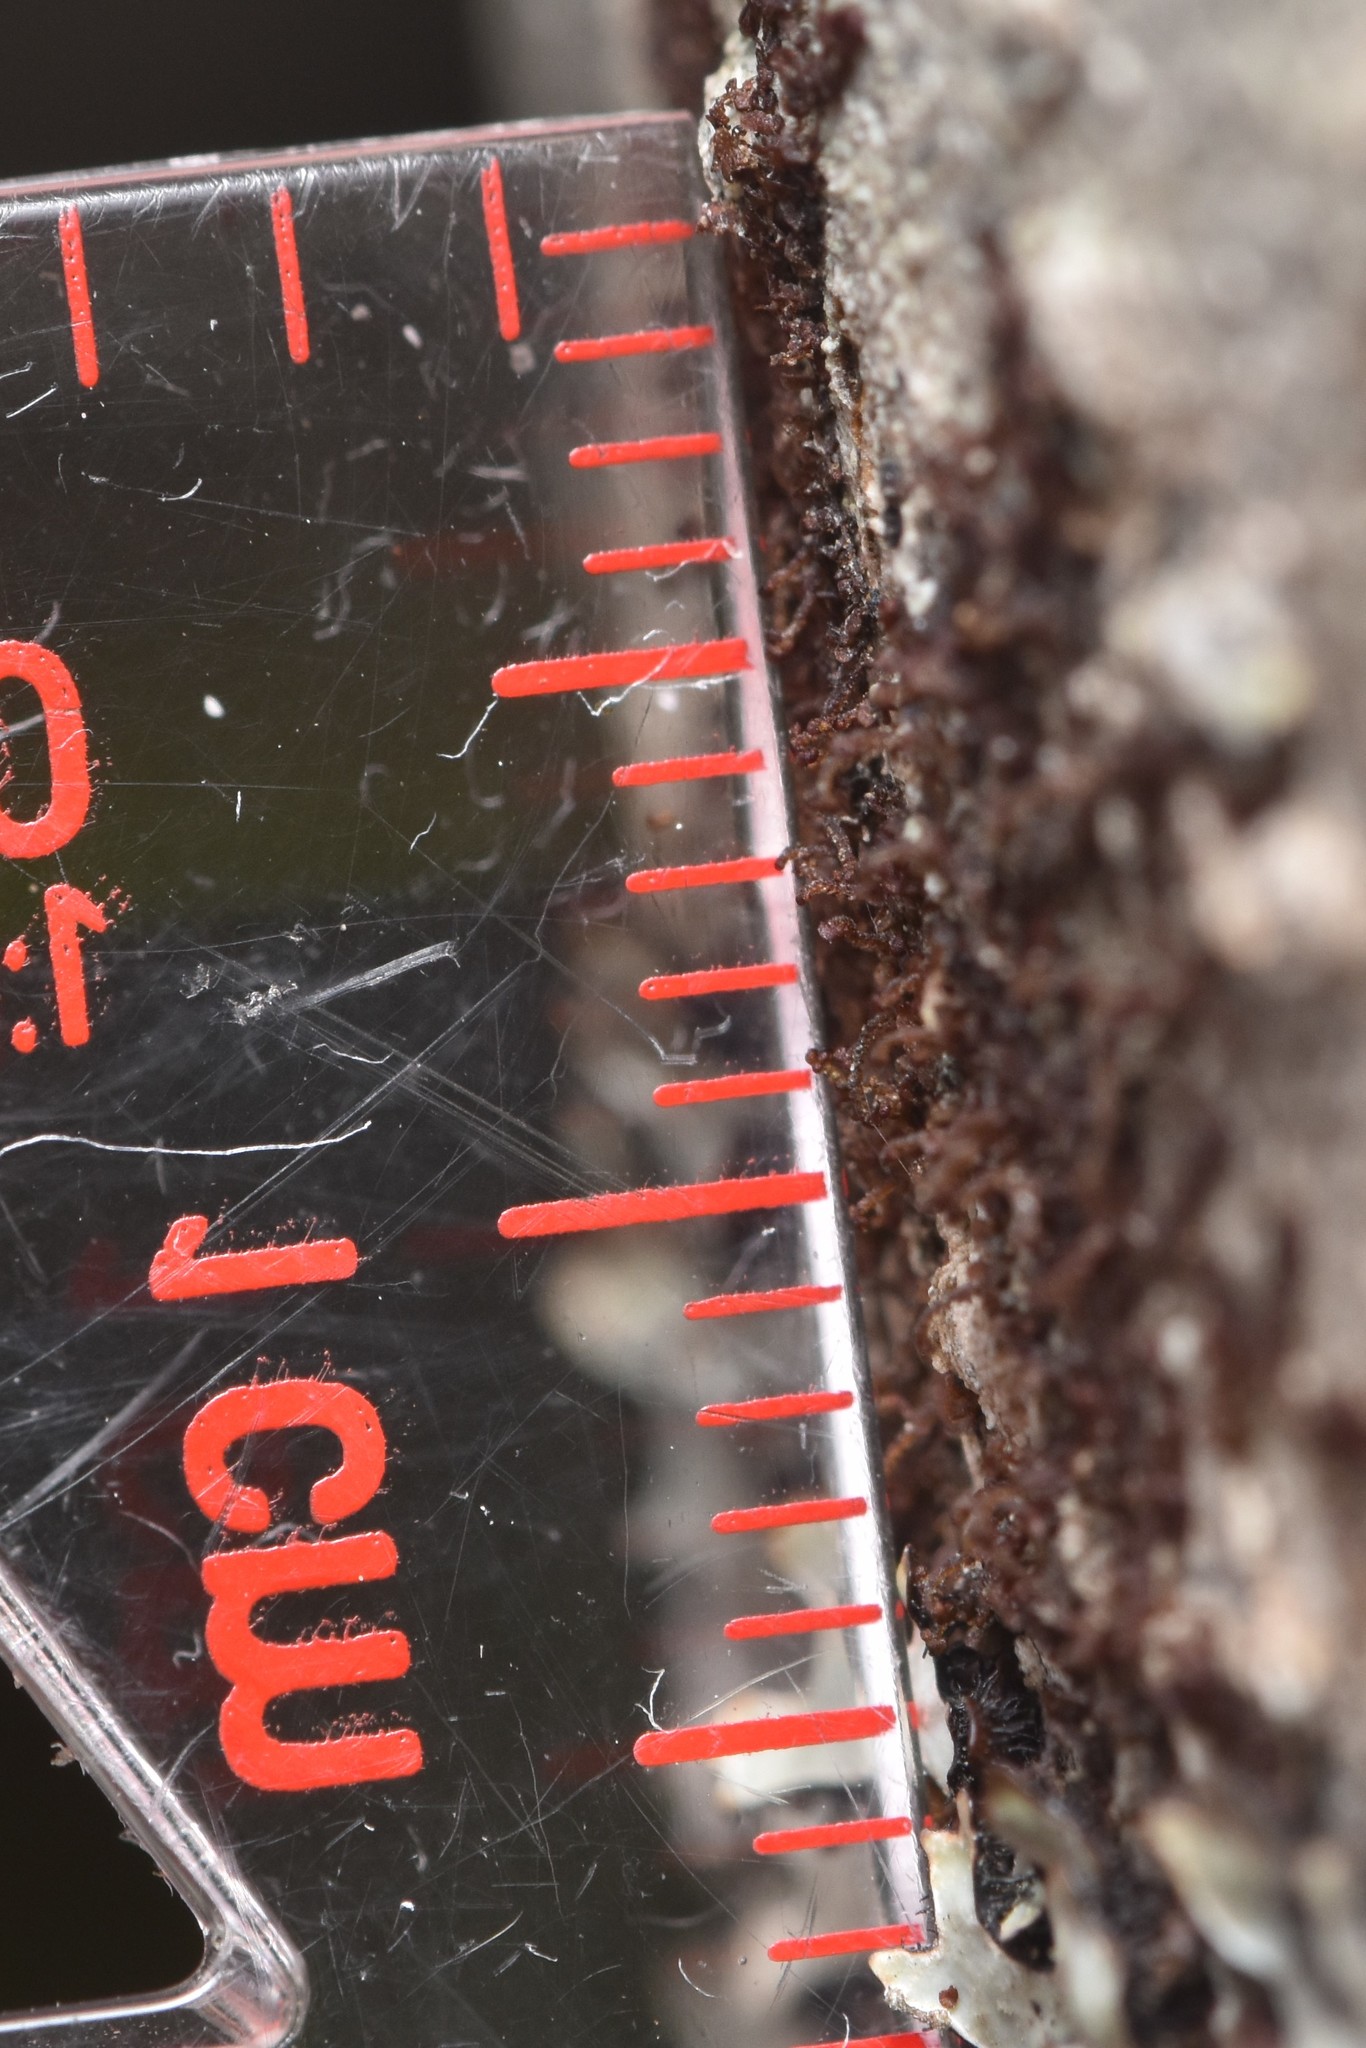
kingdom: Plantae
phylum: Marchantiophyta
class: Jungermanniopsida
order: Porellales
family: Frullaniaceae
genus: Frullania
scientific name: Frullania bolanderi
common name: Bolander s scalewort
